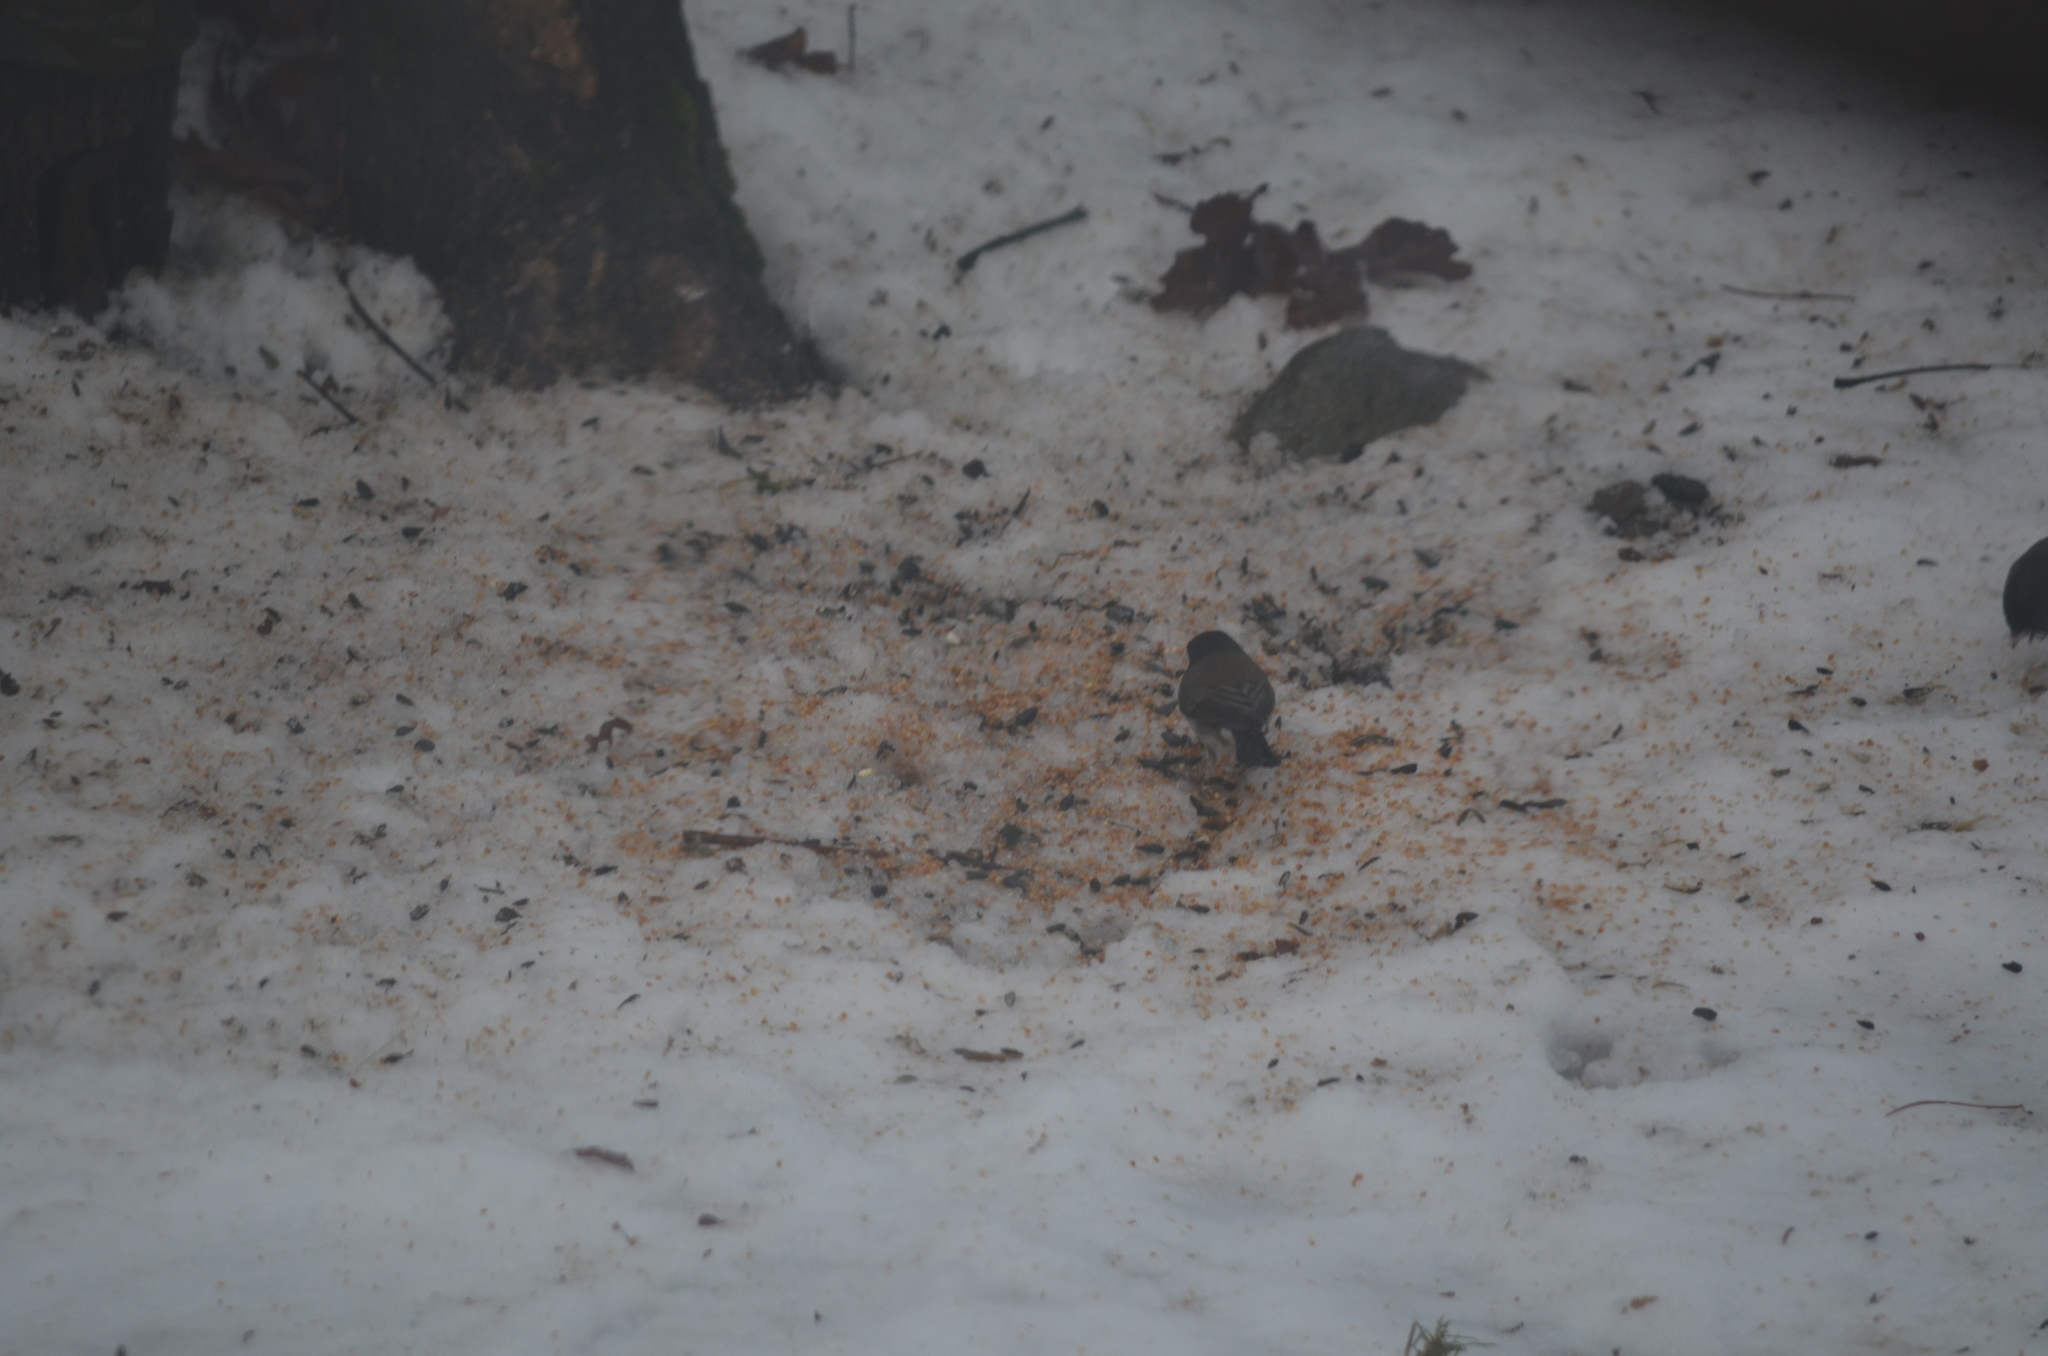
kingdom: Animalia
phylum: Chordata
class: Aves
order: Passeriformes
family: Passerellidae
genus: Junco
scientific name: Junco hyemalis
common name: Dark-eyed junco
